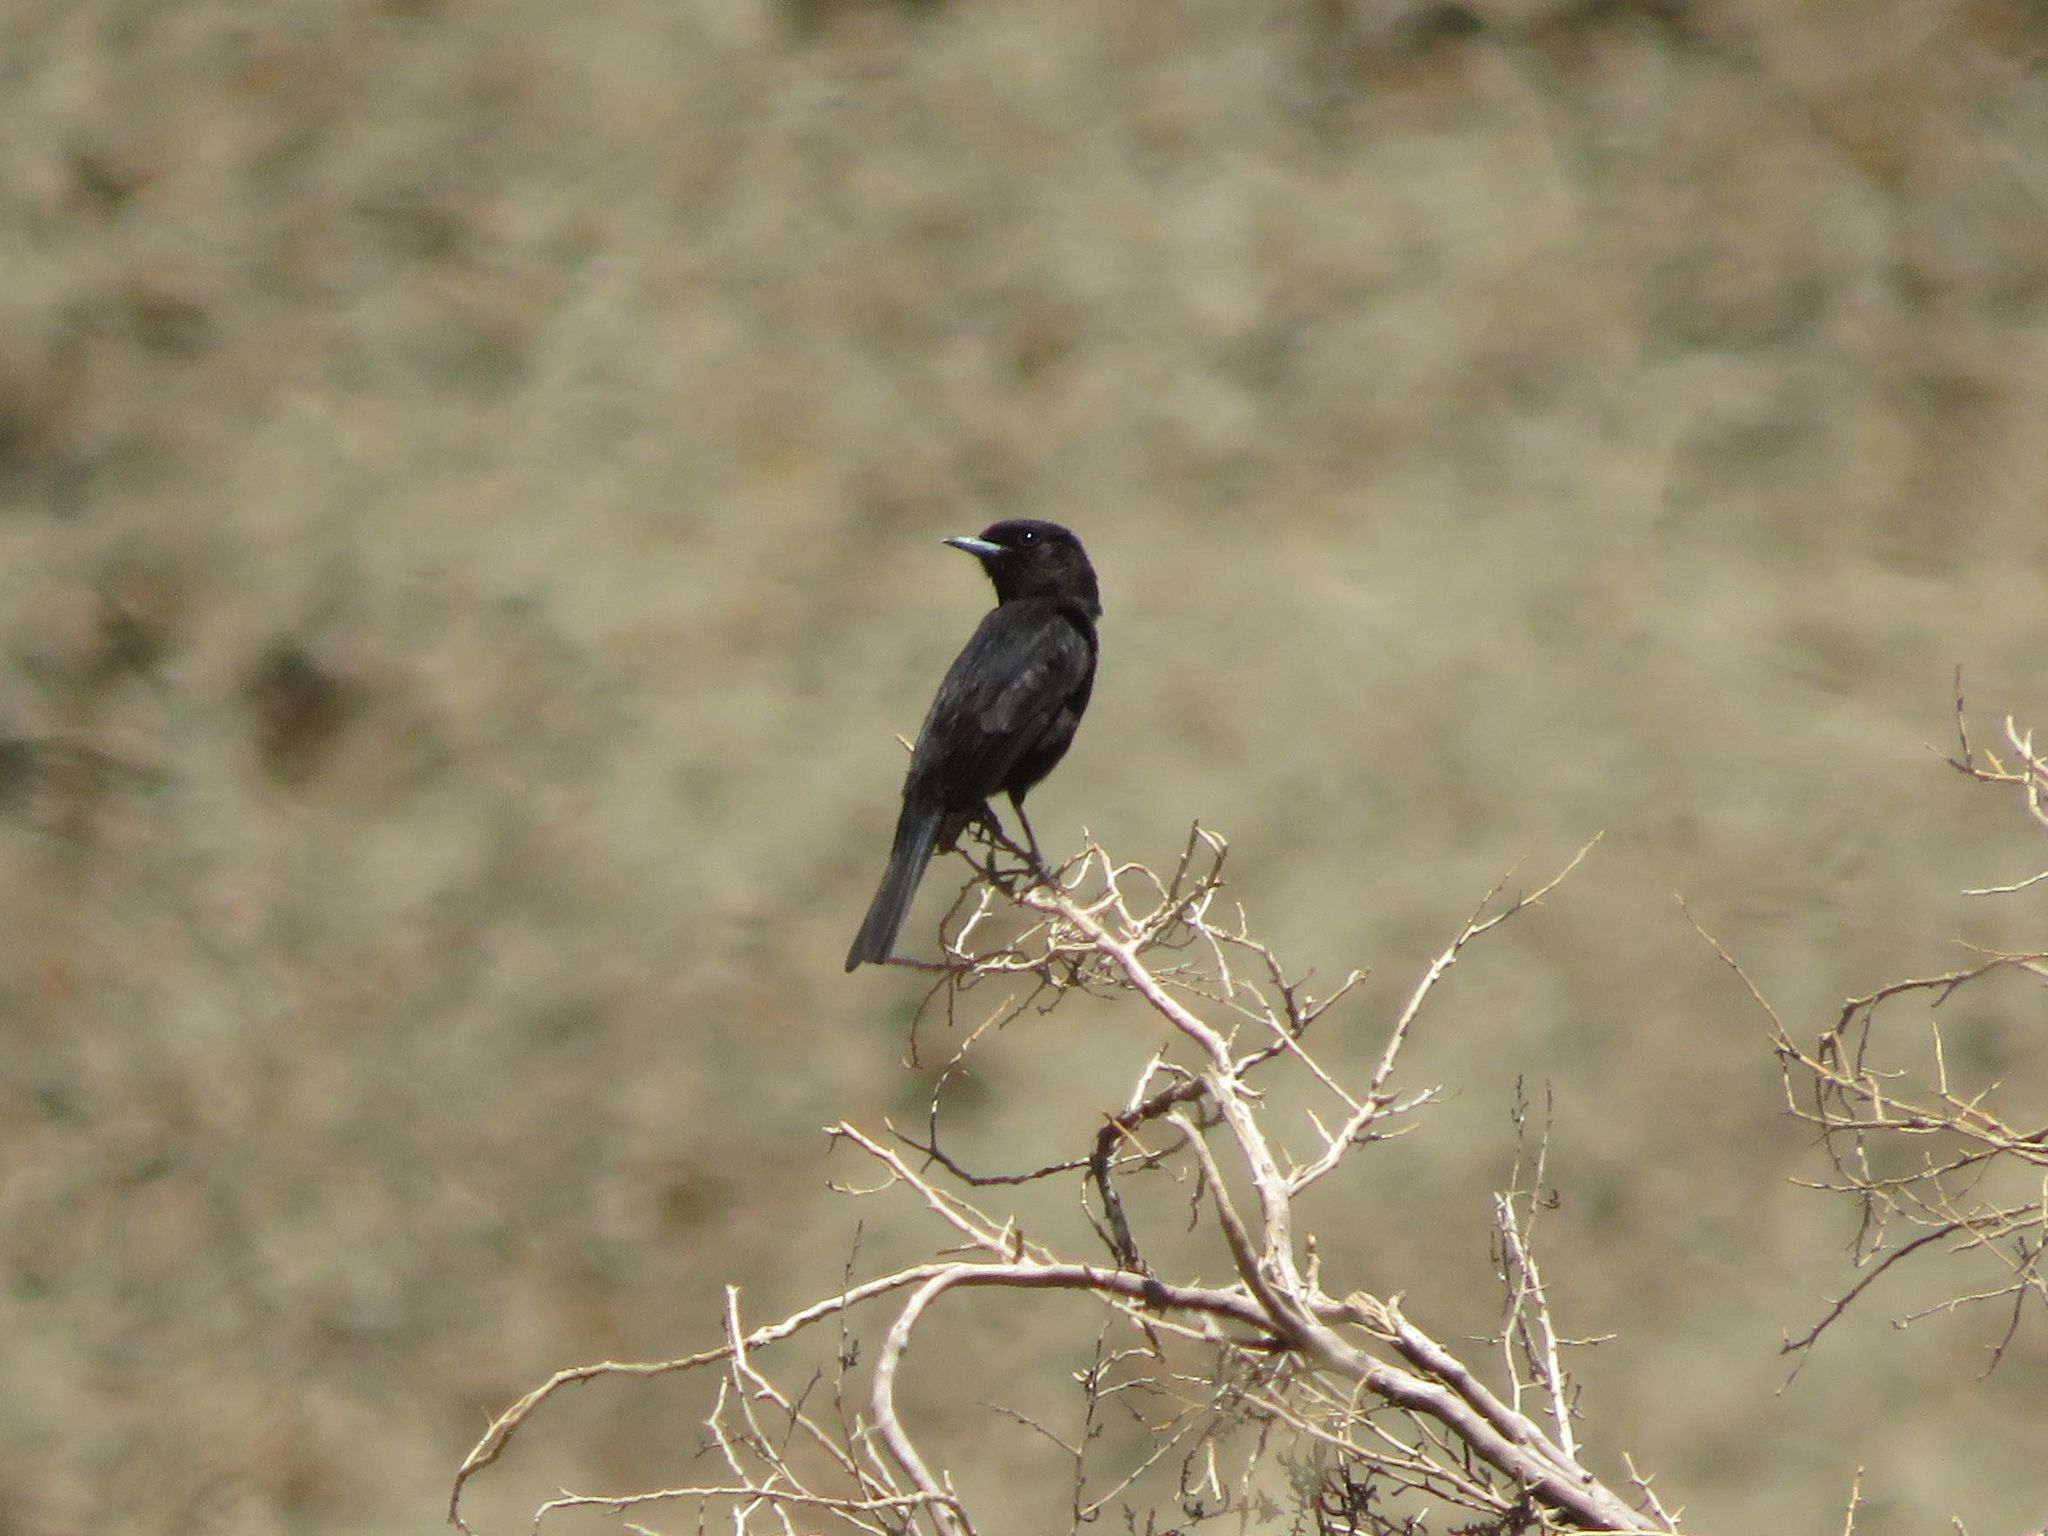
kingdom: Animalia
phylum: Chordata
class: Aves
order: Passeriformes
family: Tyrannidae
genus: Knipolegus
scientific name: Knipolegus aterrimus
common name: White-winged black tyrant
